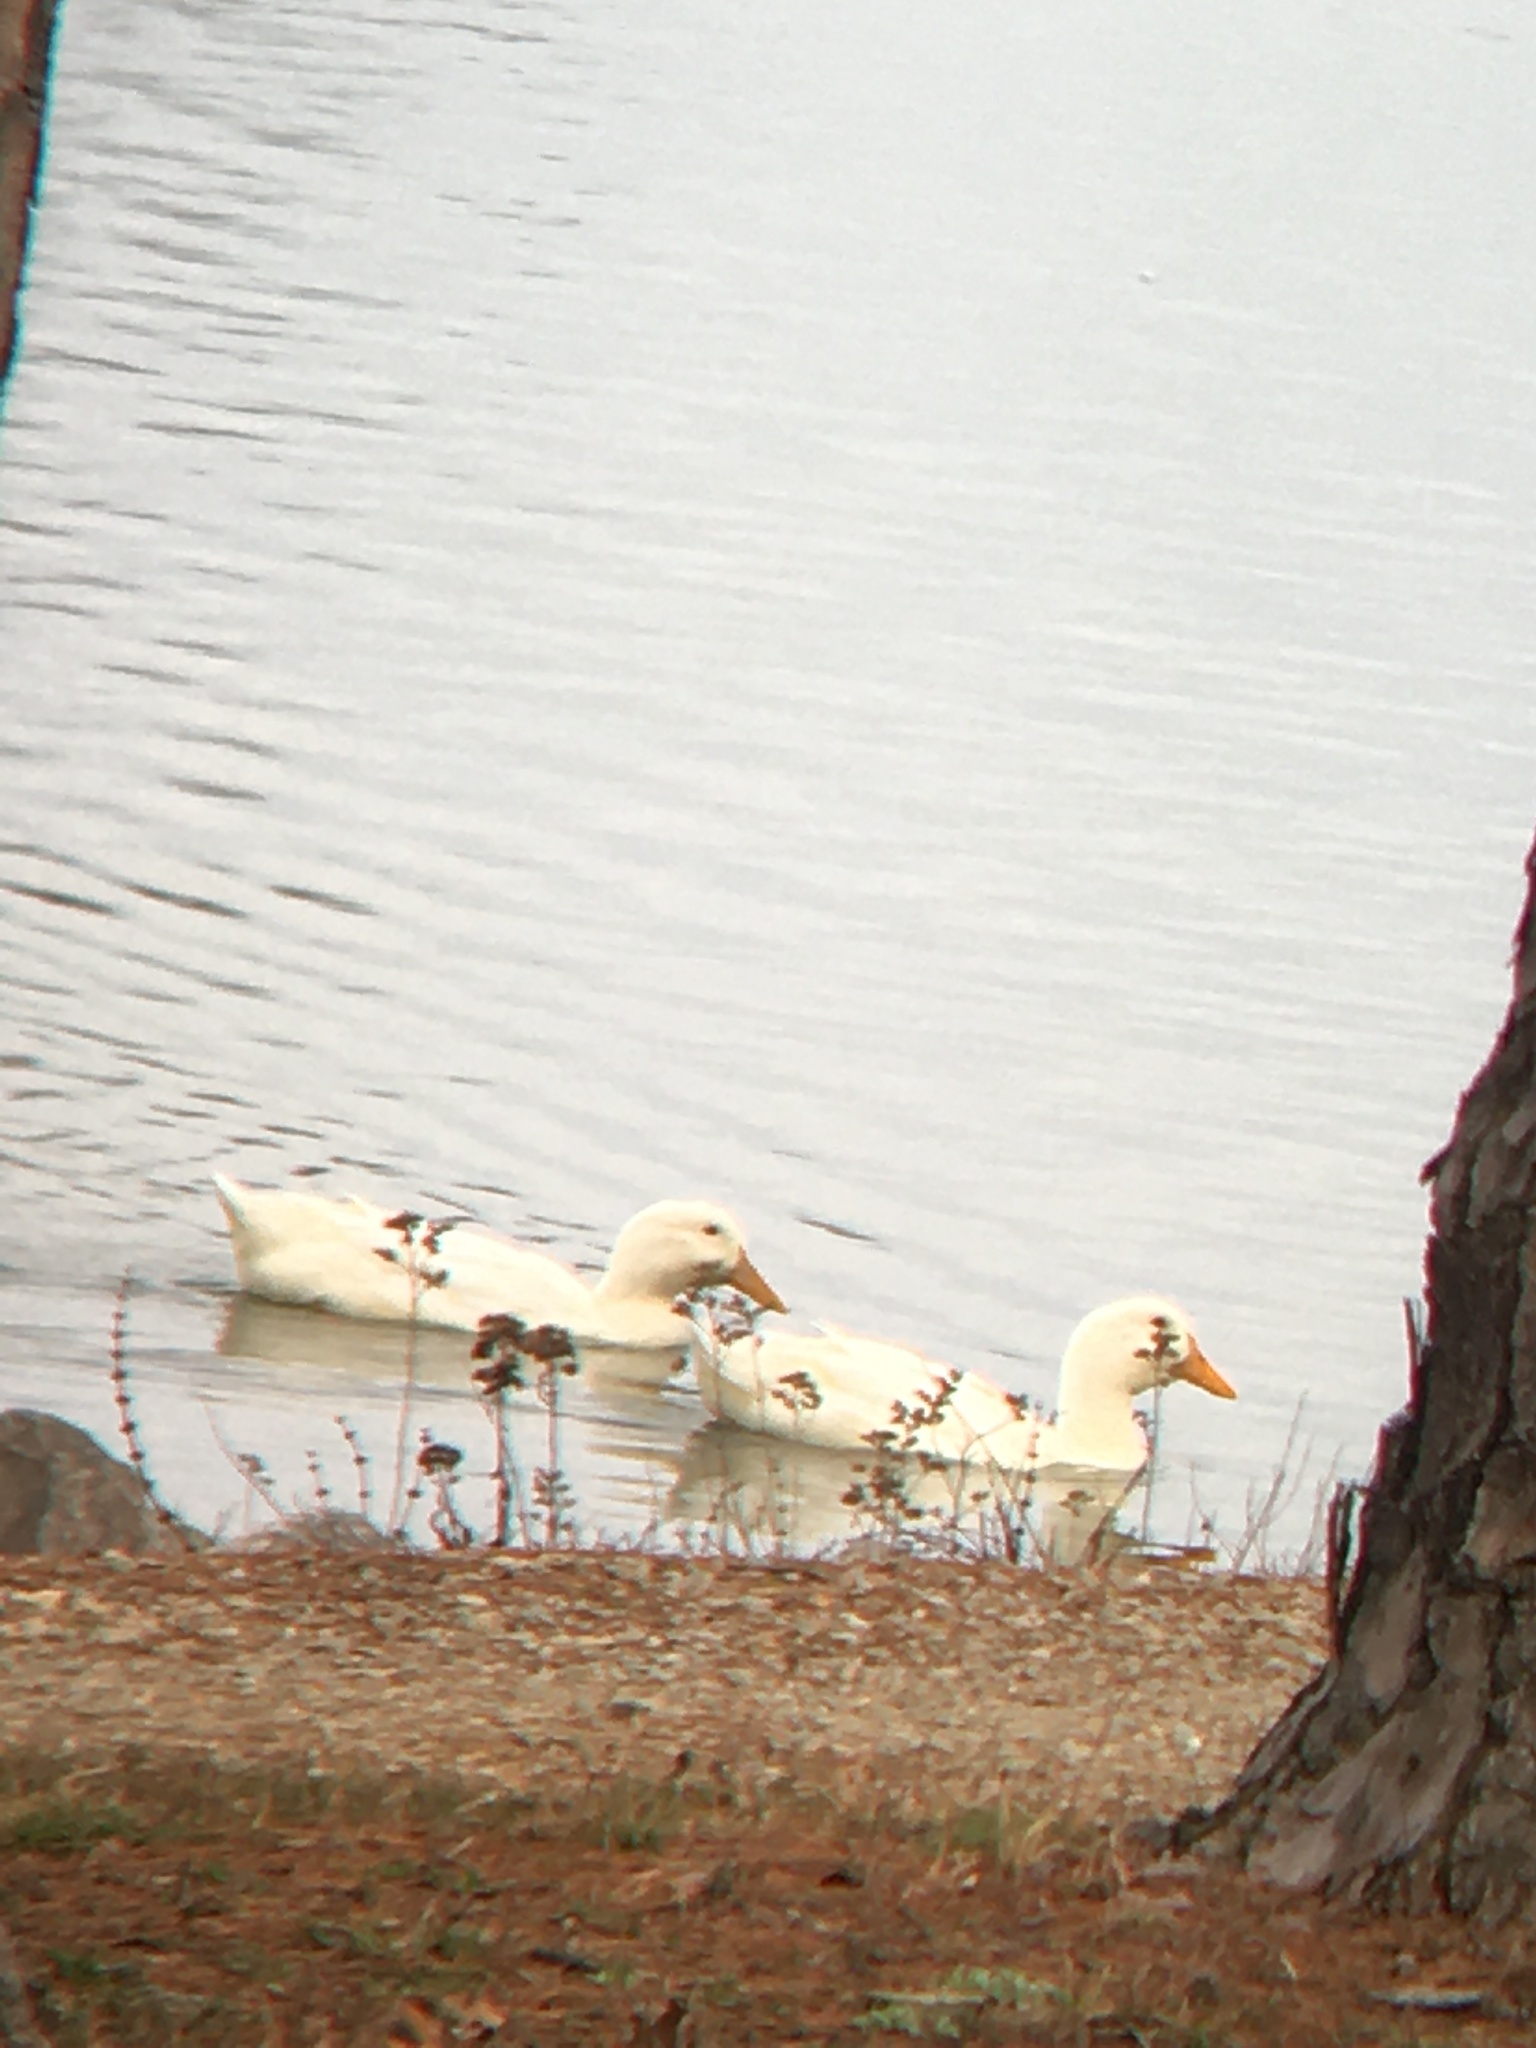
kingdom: Animalia
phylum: Chordata
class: Aves
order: Anseriformes
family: Anatidae
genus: Anas
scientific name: Anas platyrhynchos
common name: Mallard
